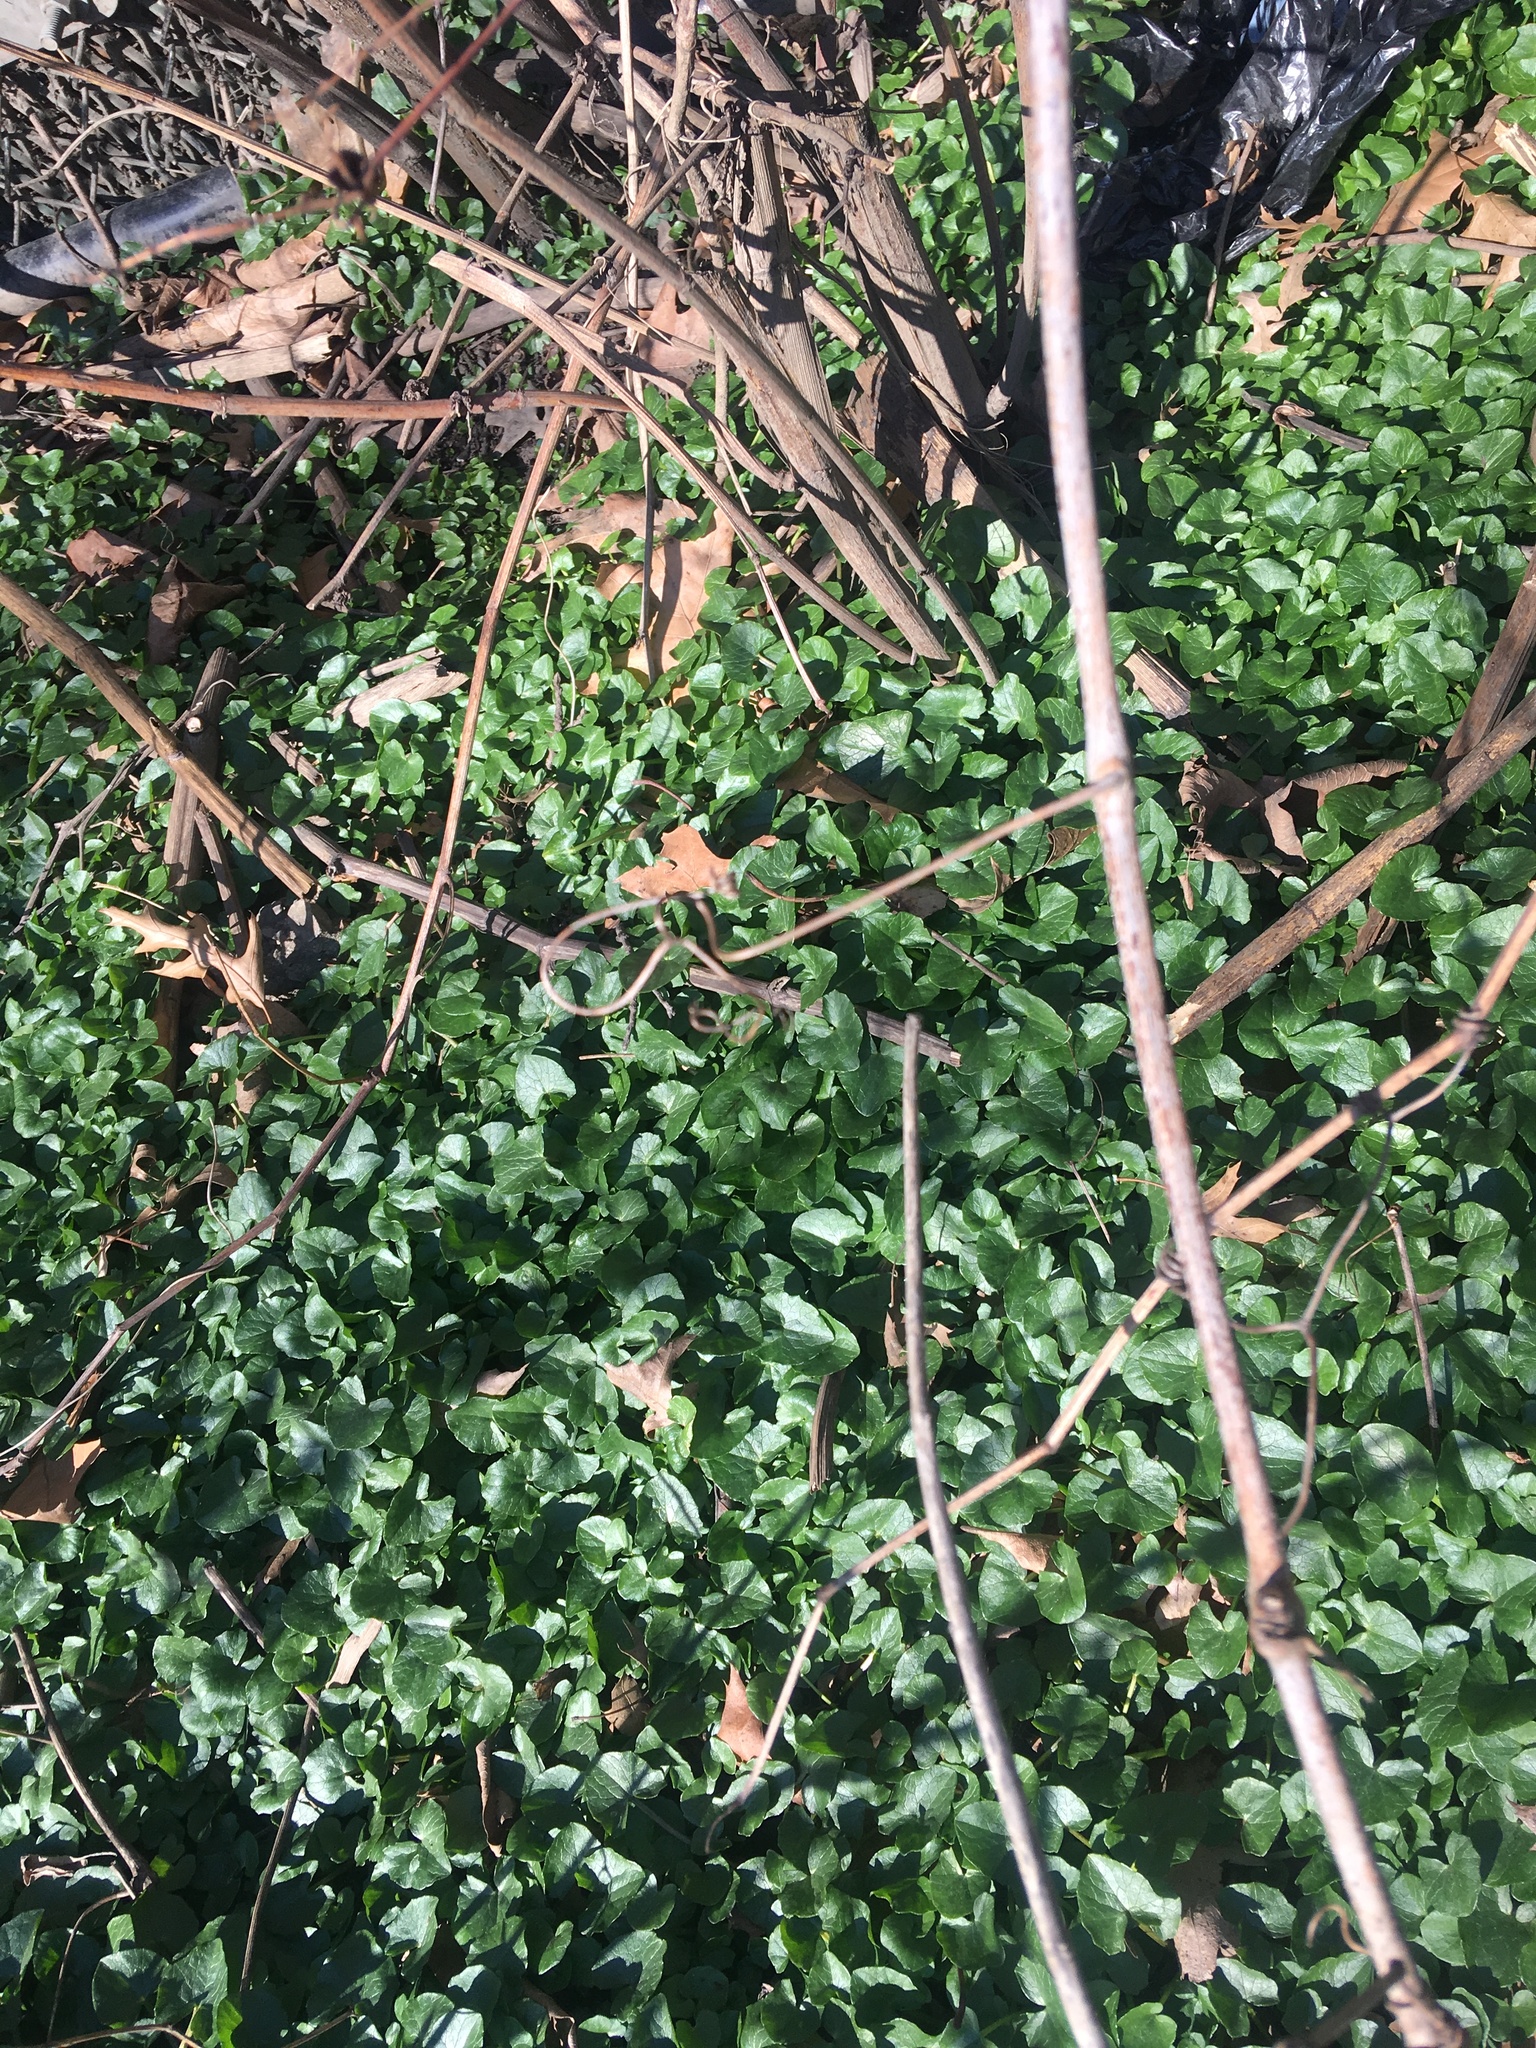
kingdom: Plantae
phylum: Tracheophyta
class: Magnoliopsida
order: Ranunculales
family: Ranunculaceae
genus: Ficaria
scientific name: Ficaria verna
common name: Lesser celandine
